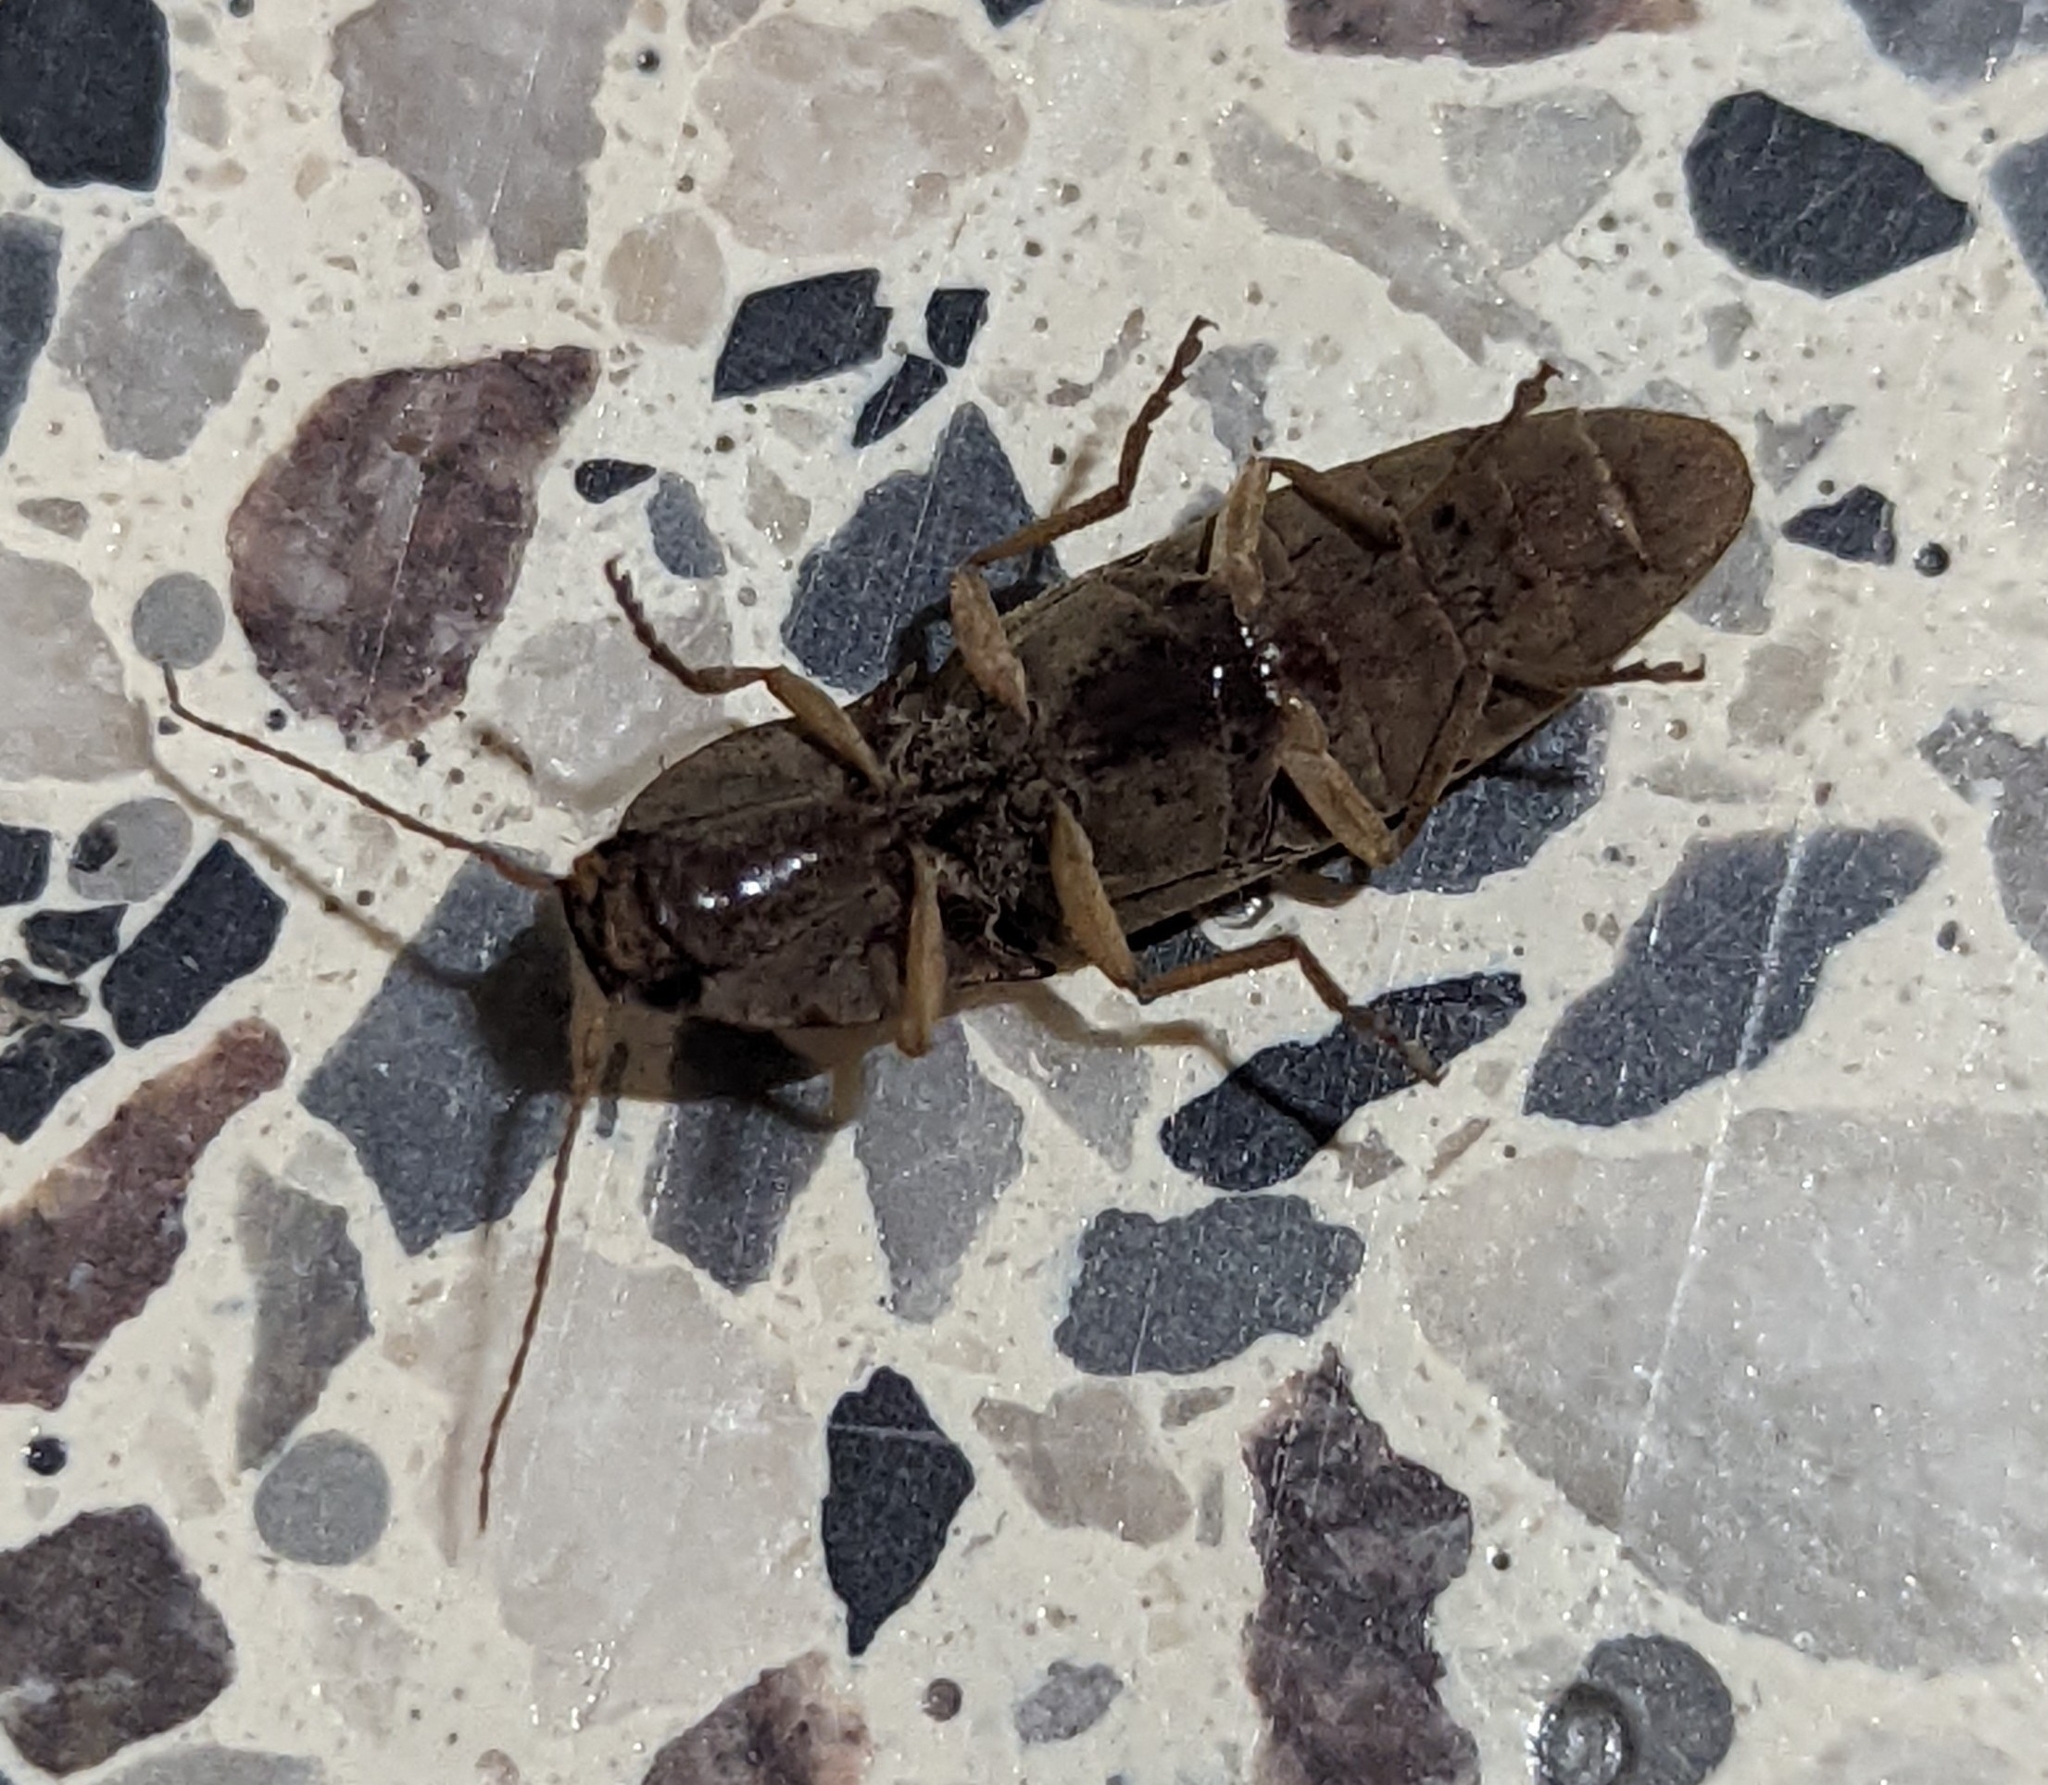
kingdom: Animalia
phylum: Arthropoda
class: Insecta
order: Coleoptera
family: Elateridae
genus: Monocrepidius
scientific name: Monocrepidius lividus
